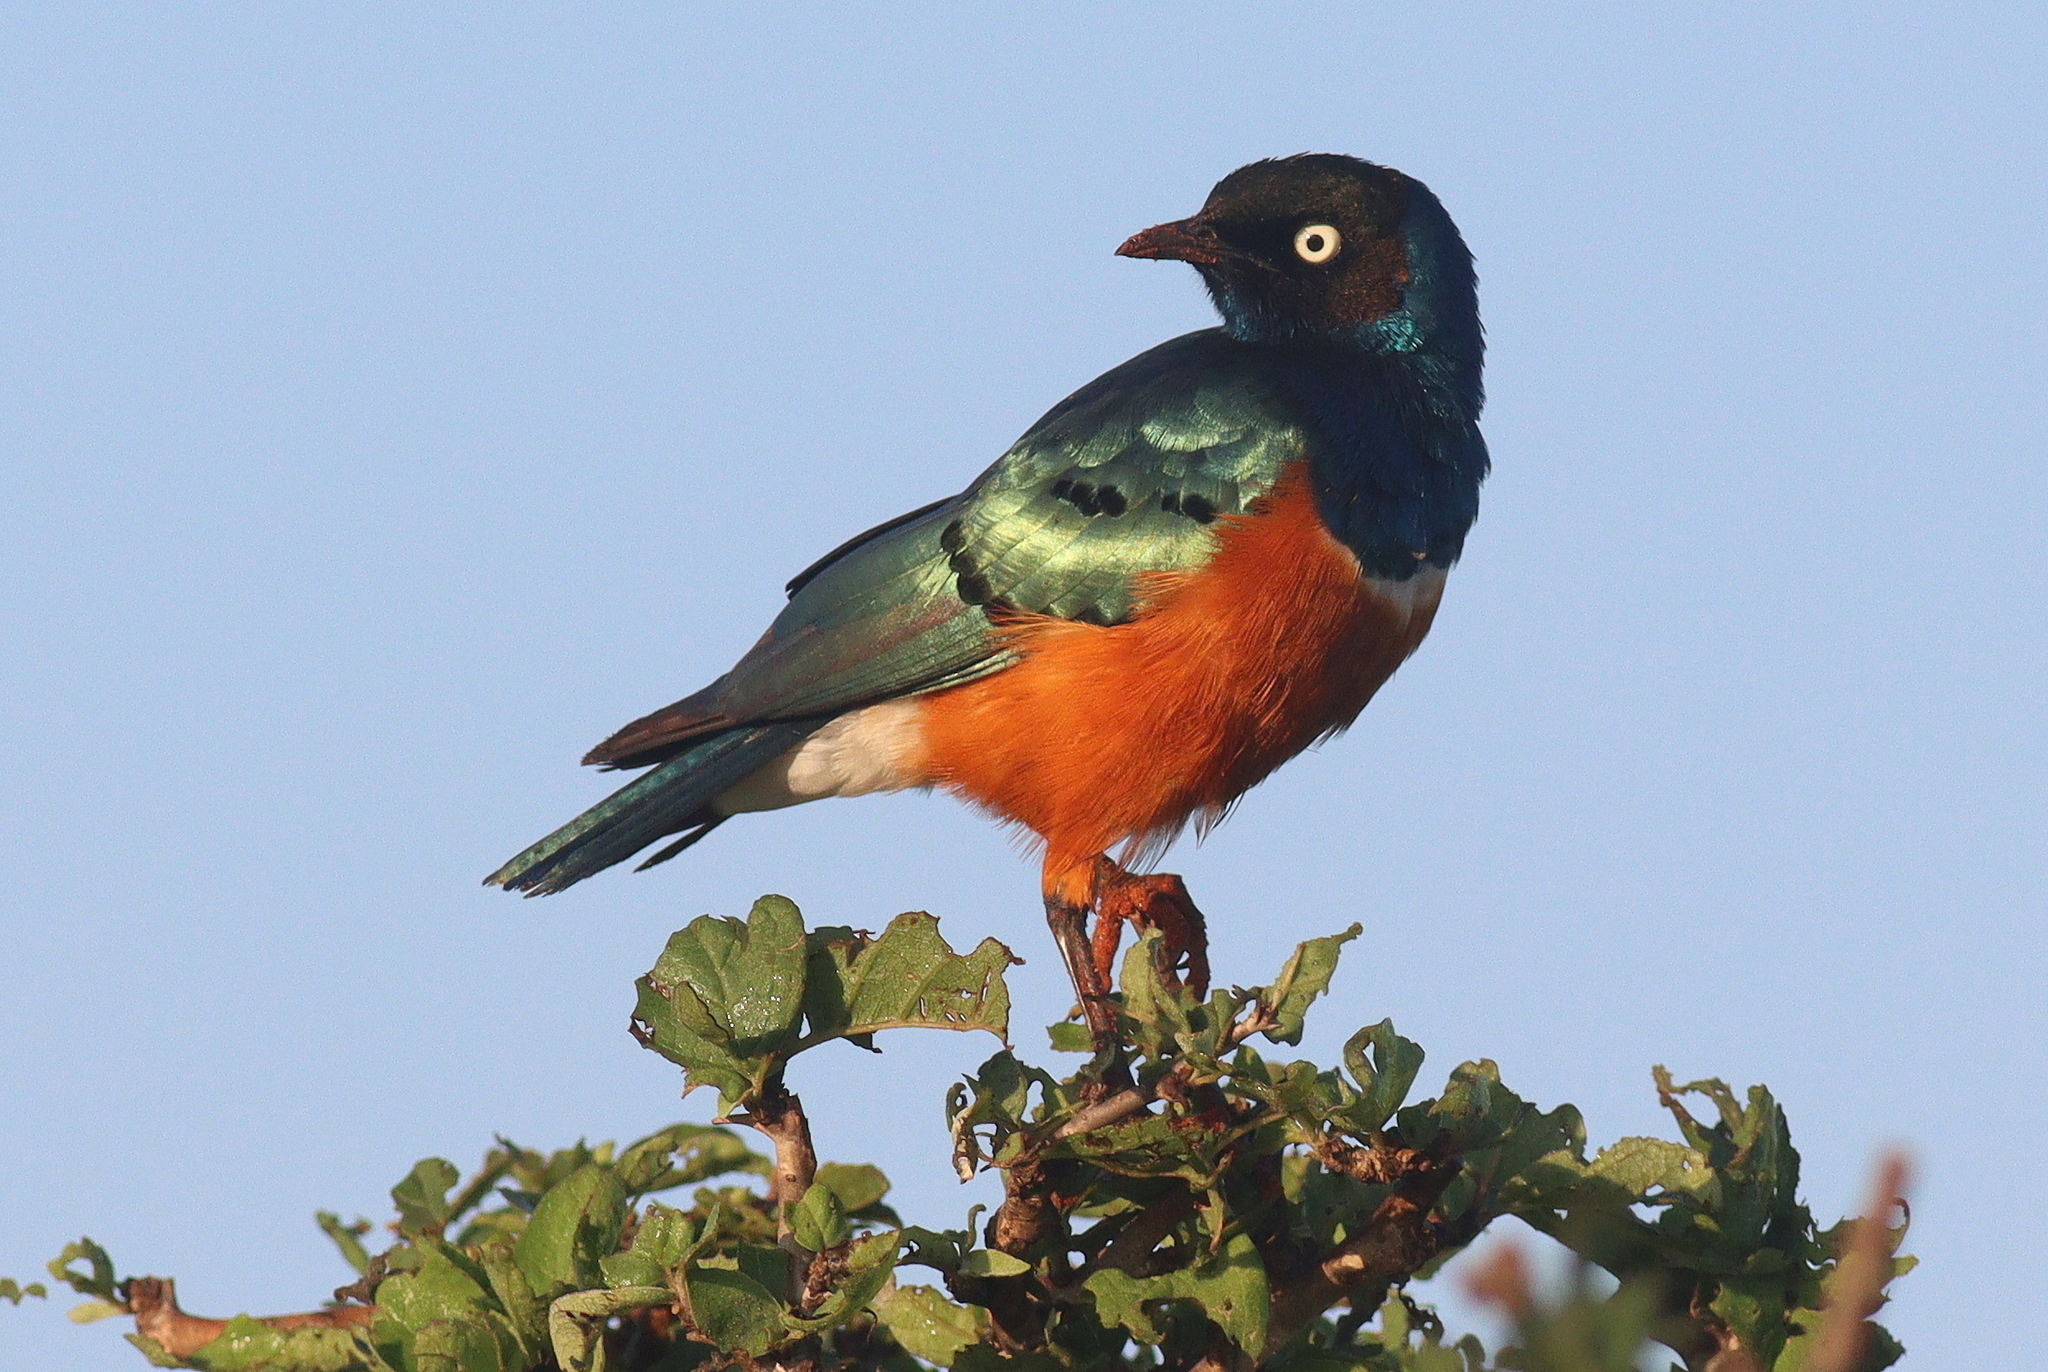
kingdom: Animalia
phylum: Chordata
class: Aves
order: Passeriformes
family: Sturnidae
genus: Lamprotornis
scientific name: Lamprotornis superbus
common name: Superb starling
